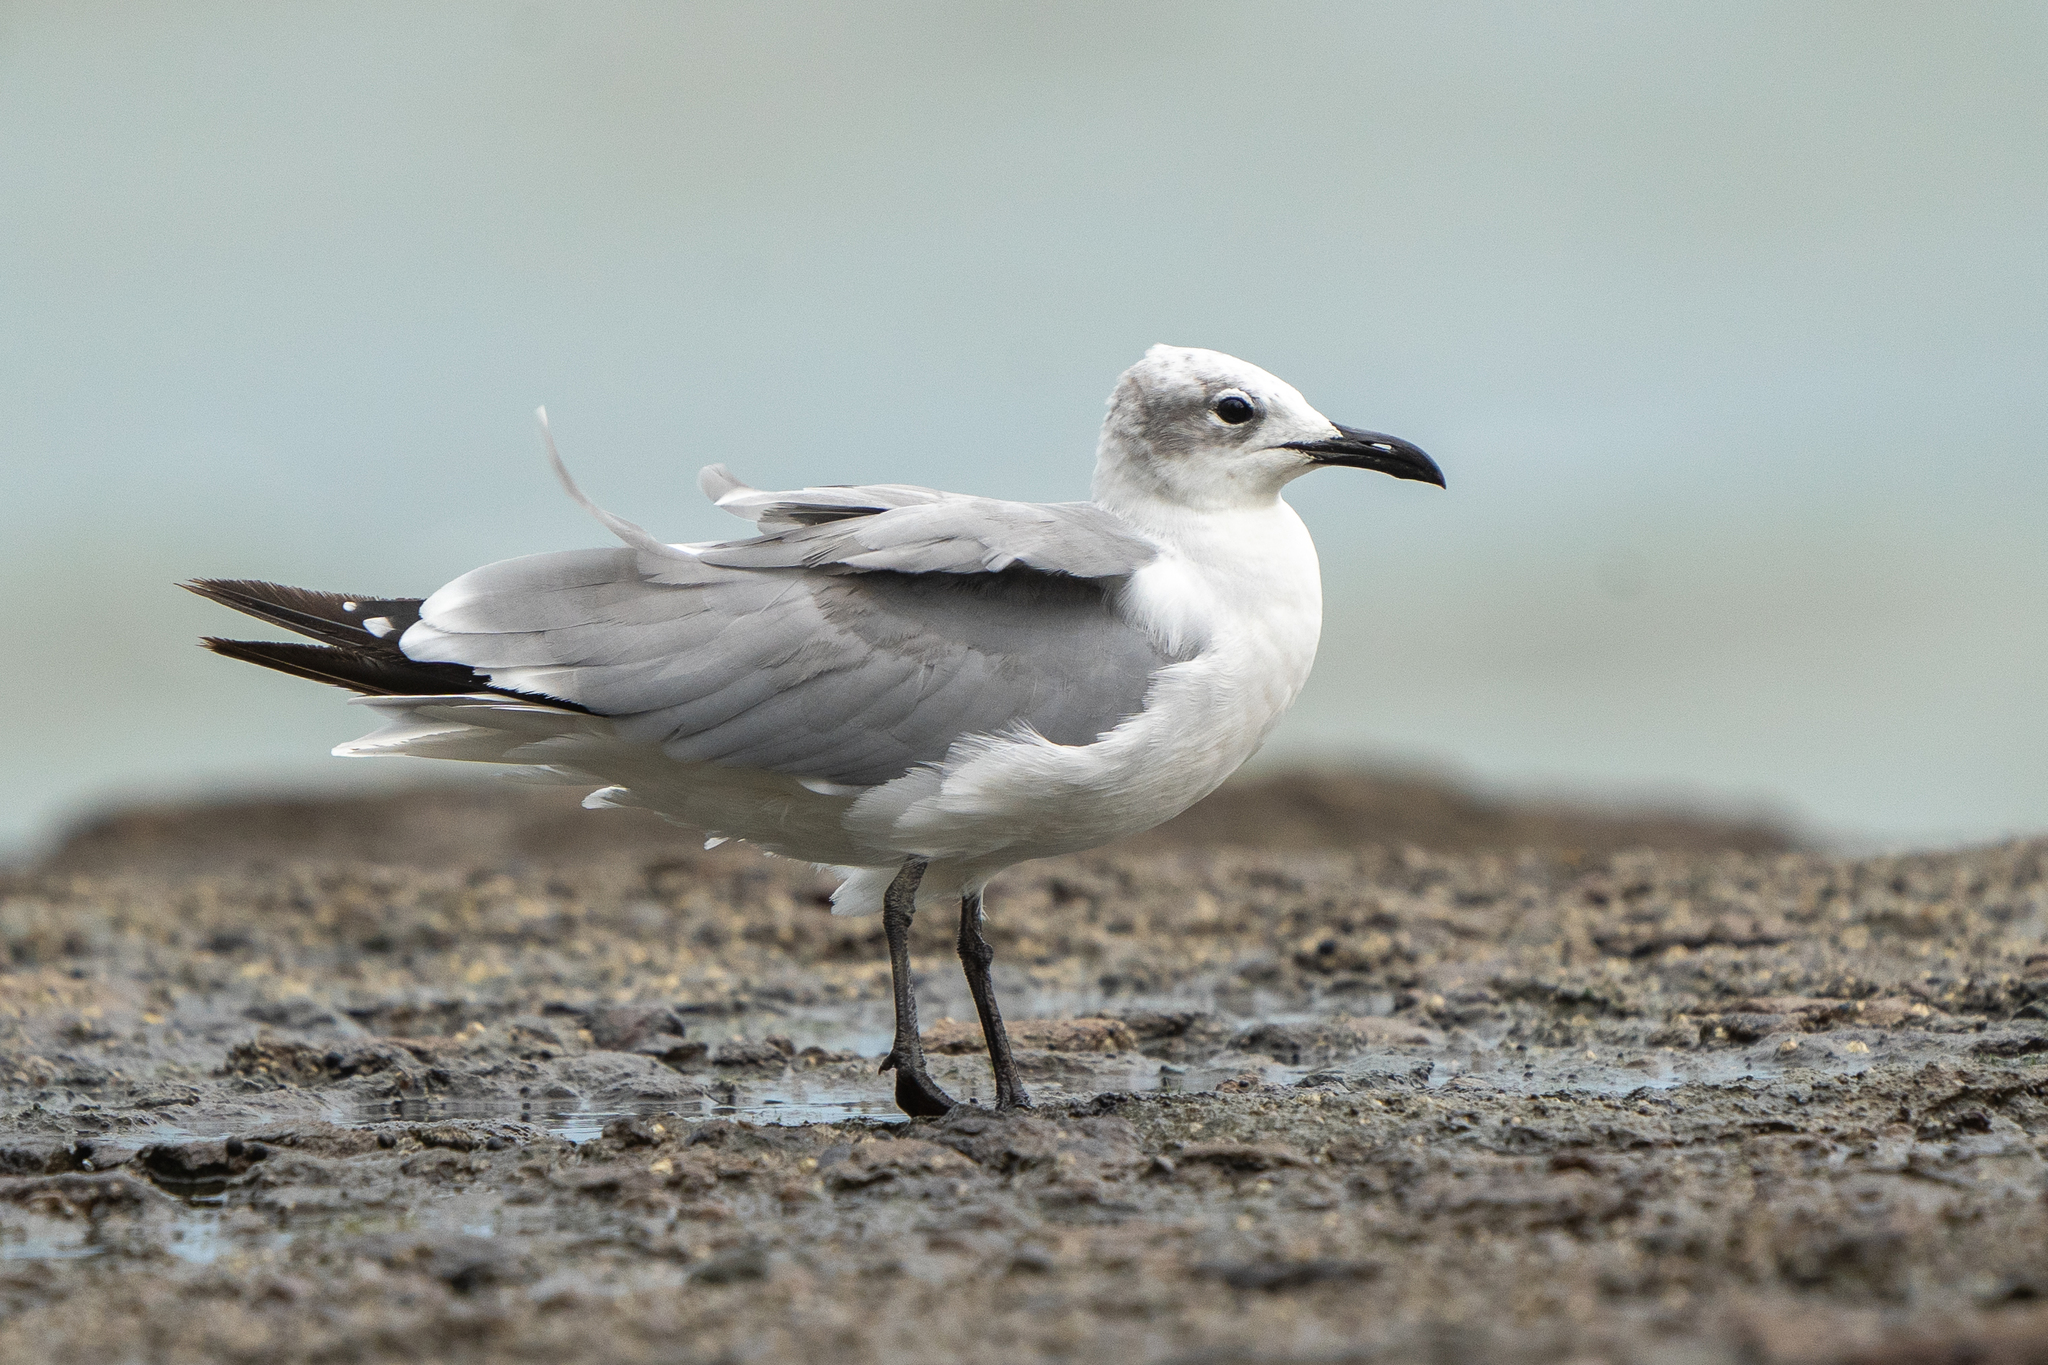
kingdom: Animalia
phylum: Chordata
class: Aves
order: Charadriiformes
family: Laridae
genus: Leucophaeus
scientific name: Leucophaeus atricilla
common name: Laughing gull
